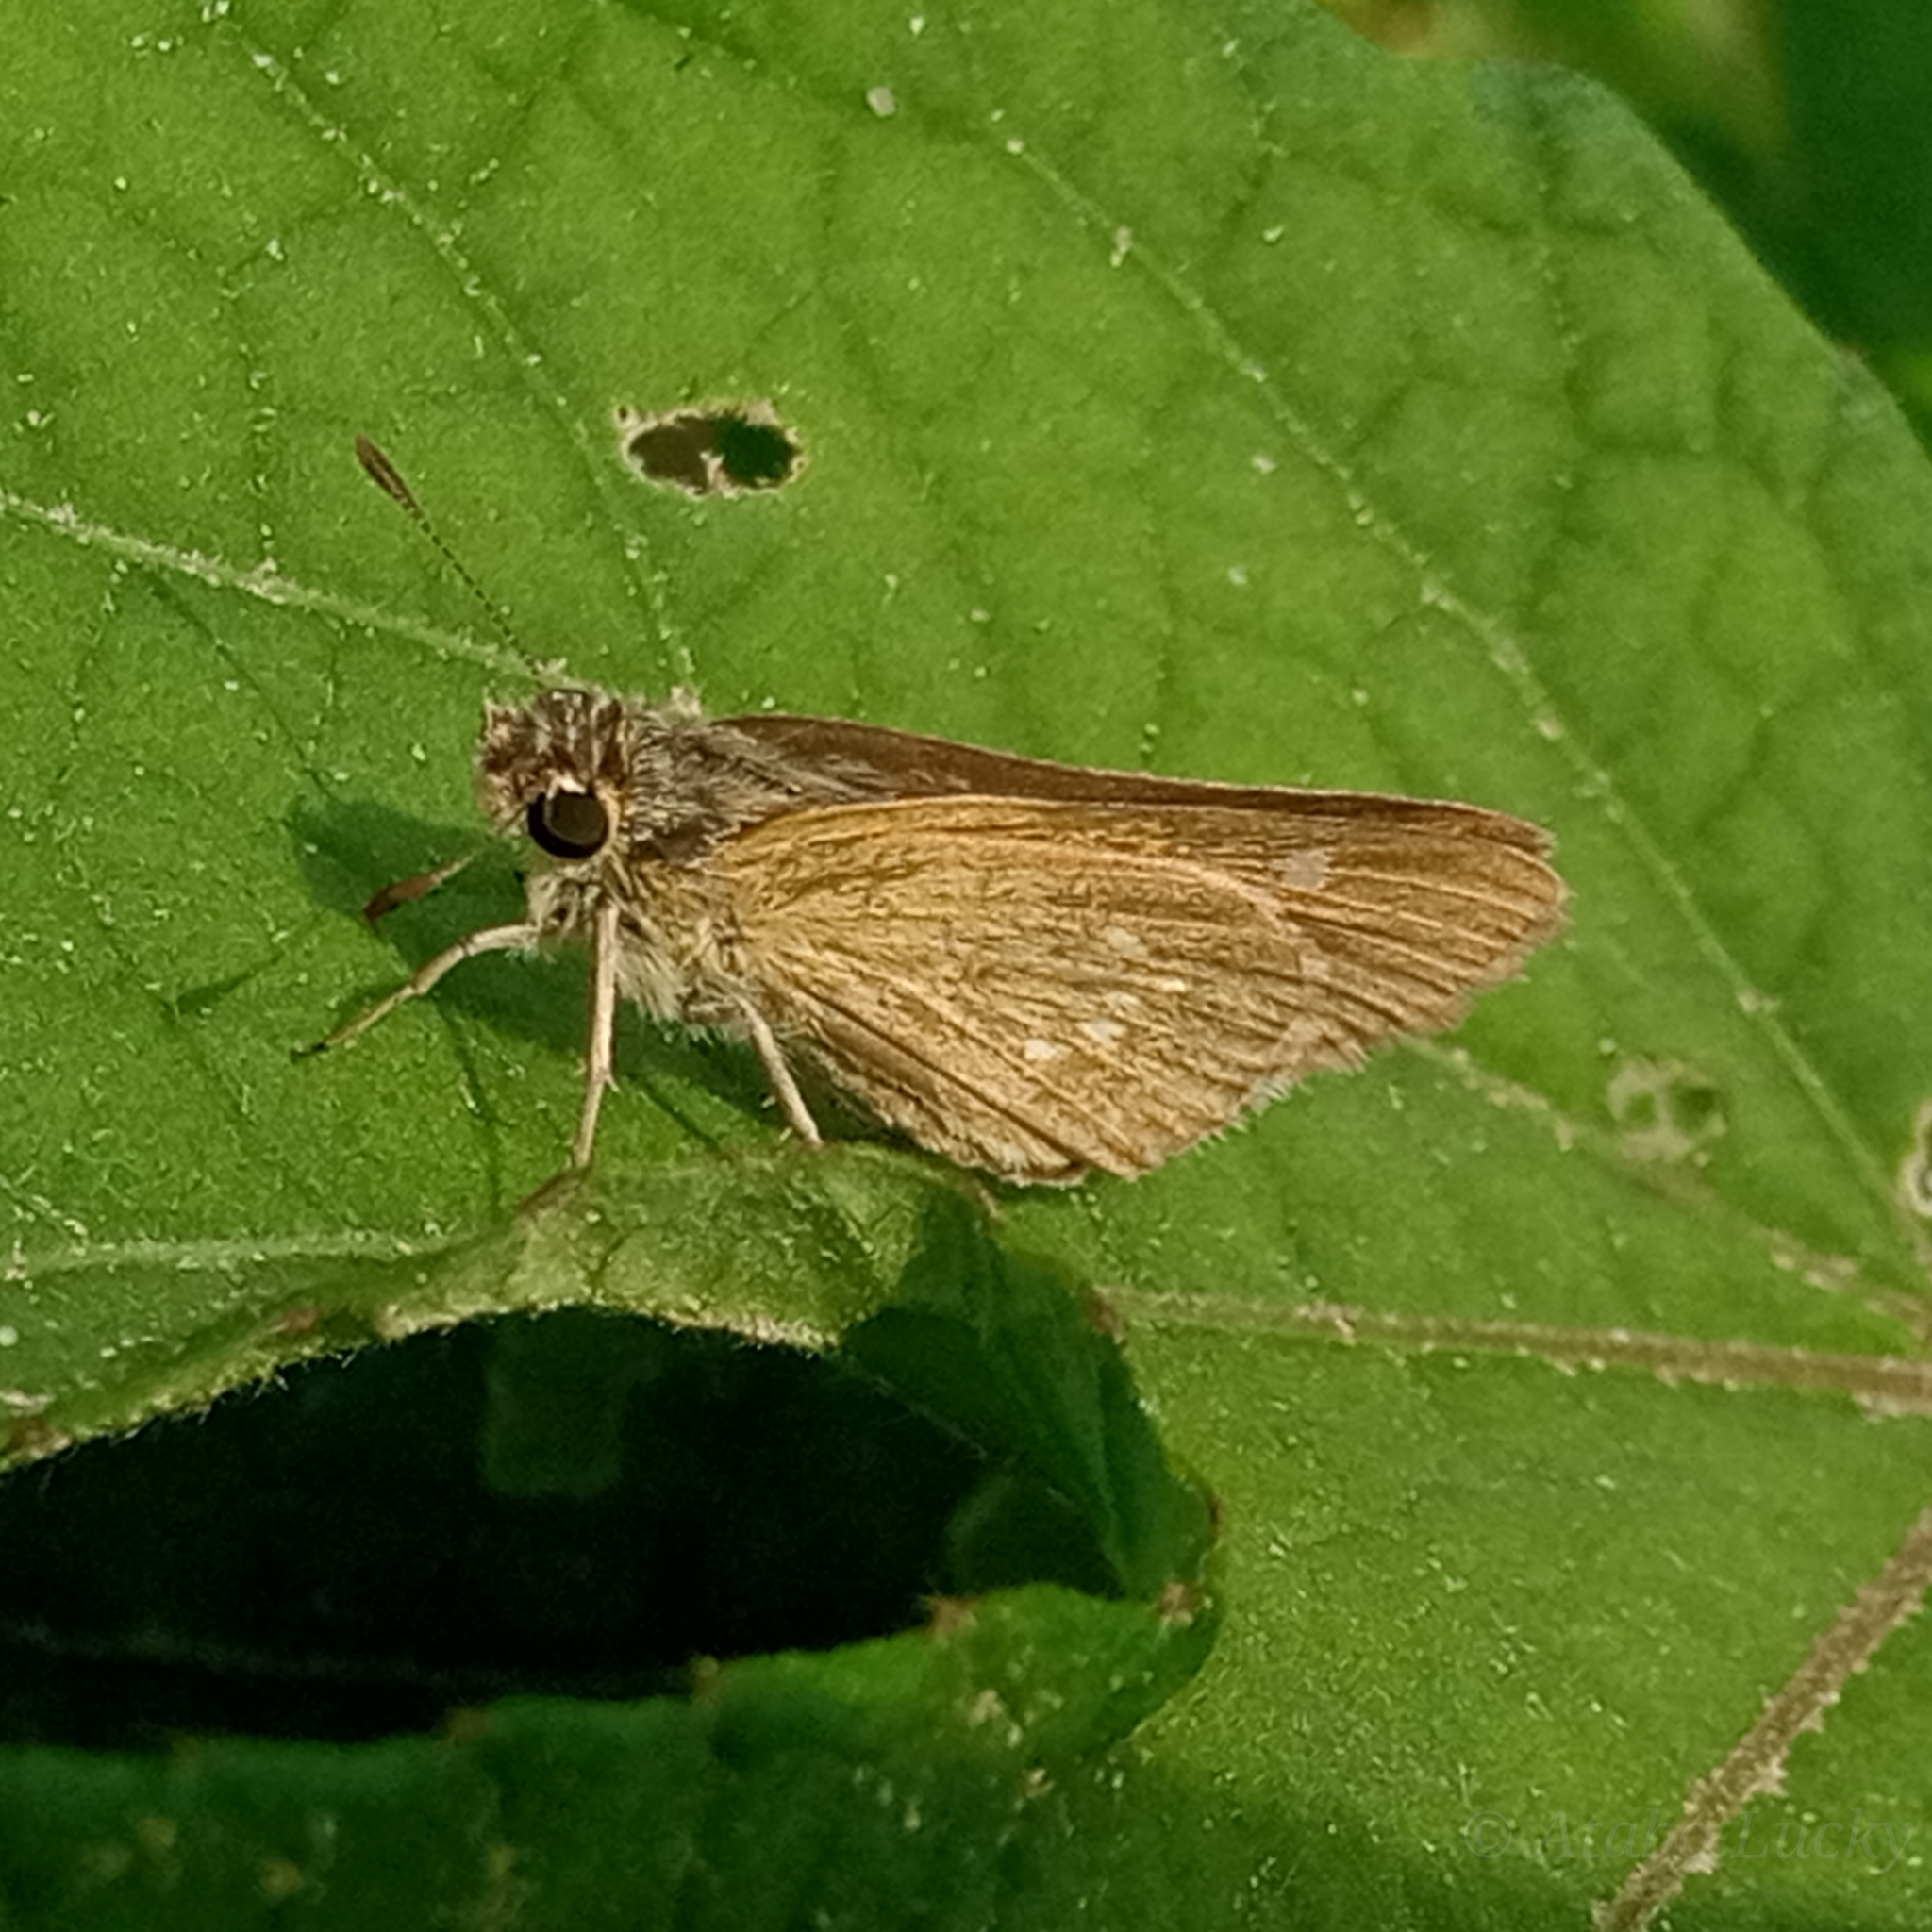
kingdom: Animalia
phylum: Arthropoda
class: Insecta
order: Lepidoptera
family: Hesperiidae
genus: Parnara
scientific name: Parnara naso
